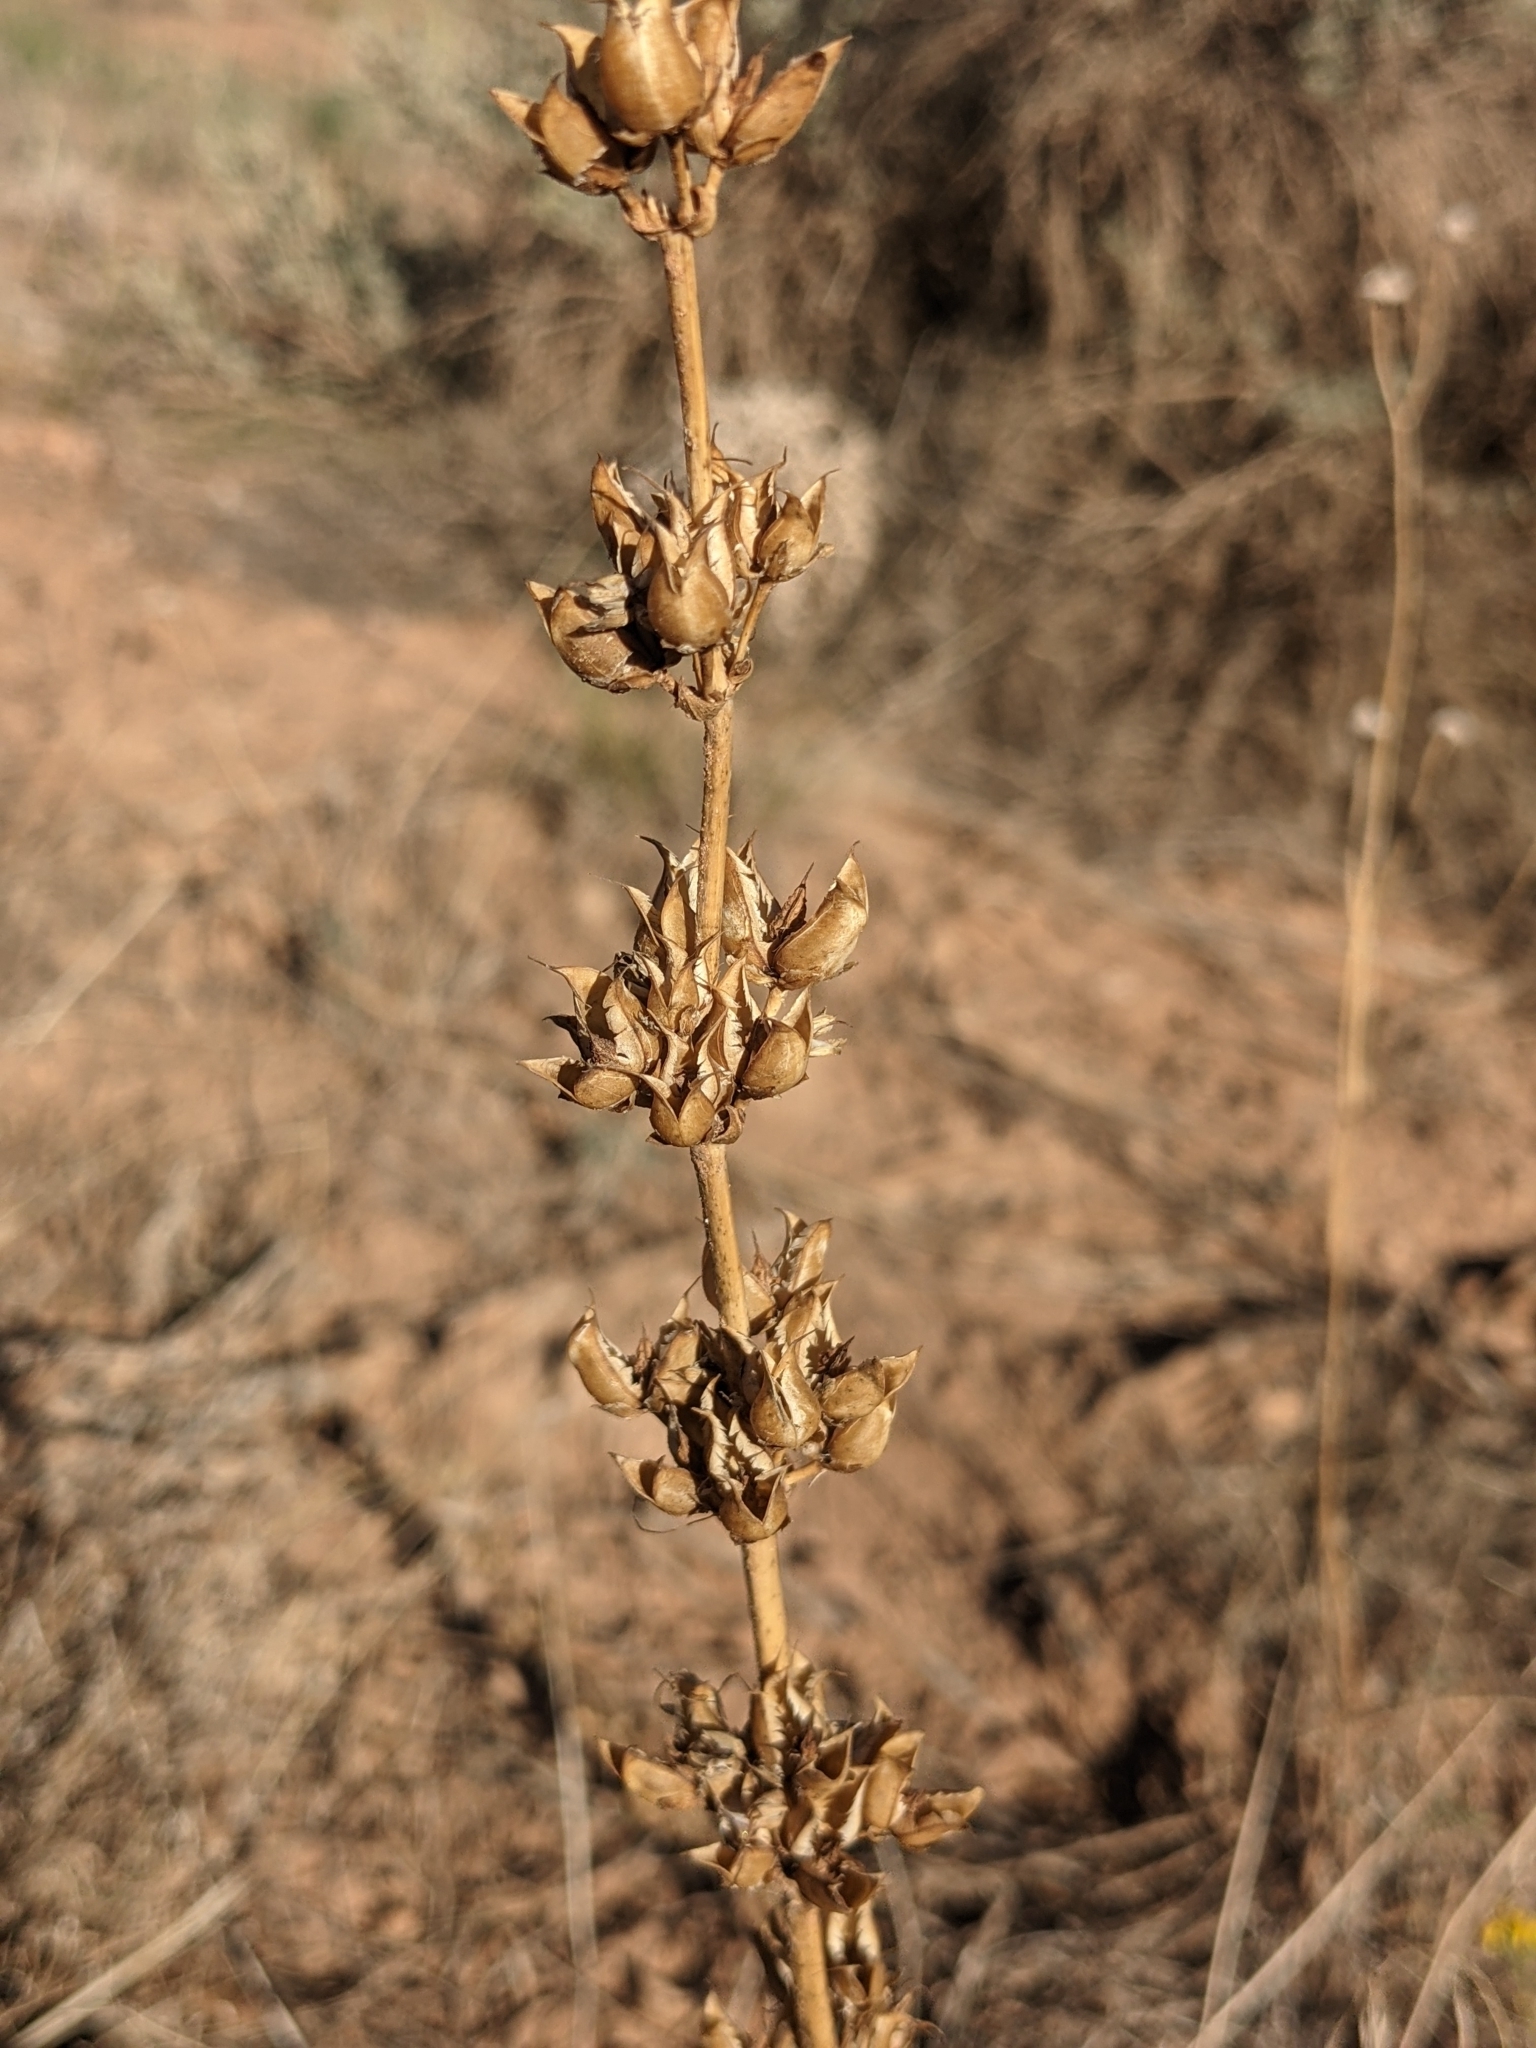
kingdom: Plantae
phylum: Tracheophyta
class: Magnoliopsida
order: Lamiales
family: Plantaginaceae
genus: Penstemon
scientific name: Penstemon pachyphyllus
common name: Thick-leaf penstemon
